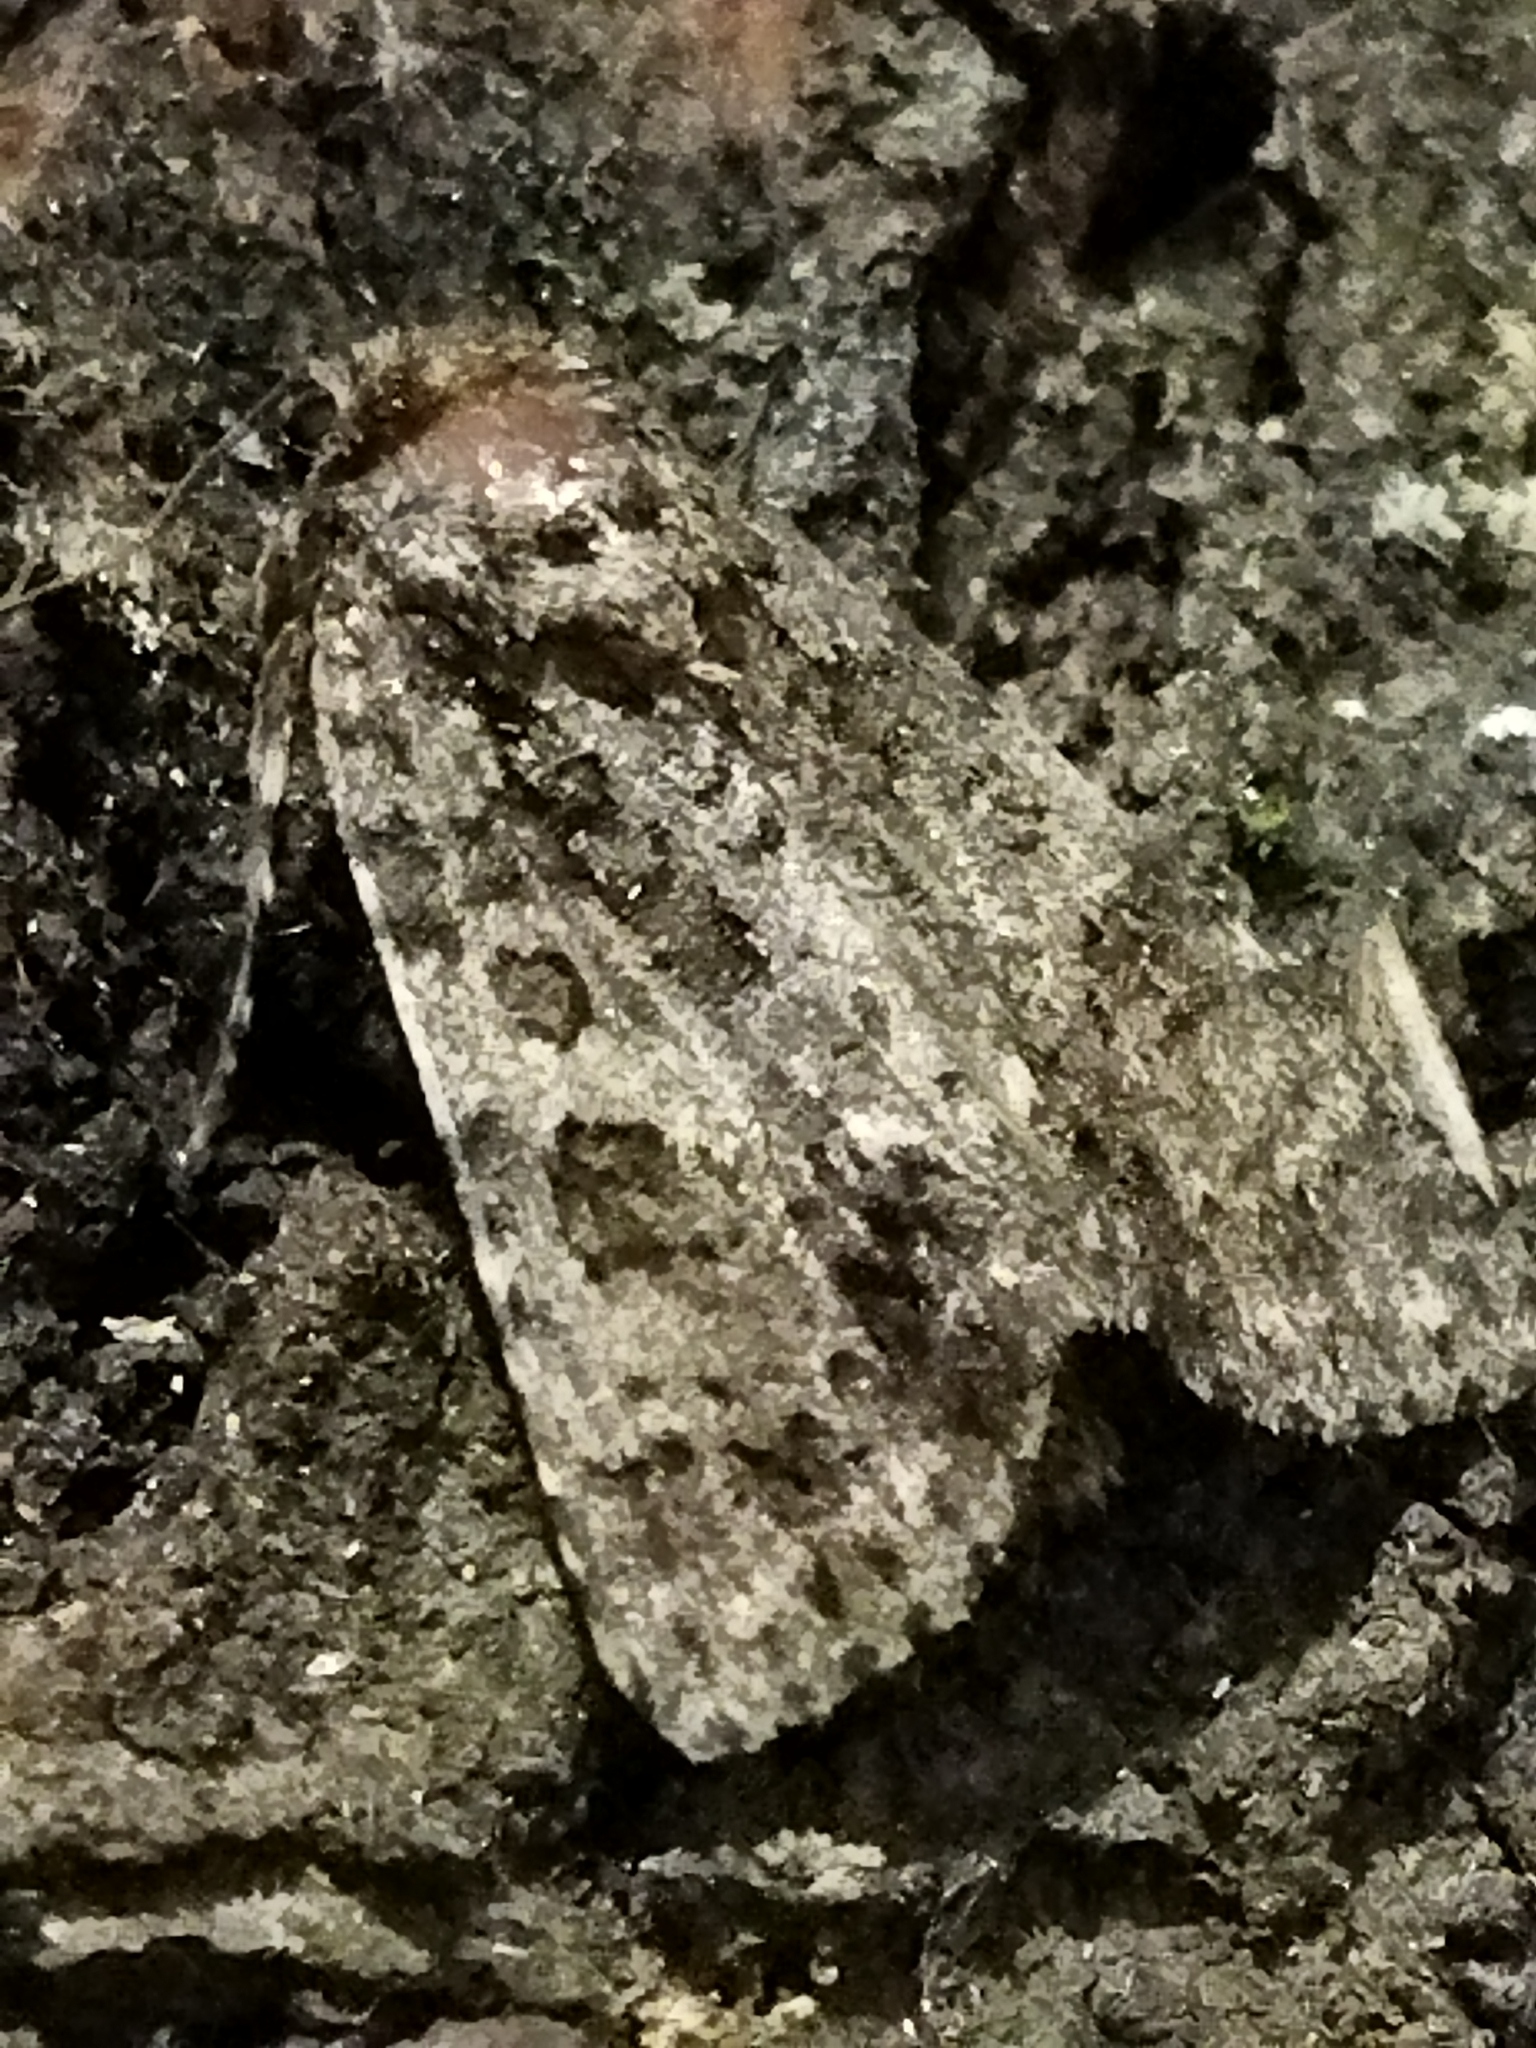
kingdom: Animalia
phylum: Arthropoda
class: Insecta
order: Lepidoptera
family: Noctuidae
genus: Acronicta
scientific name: Acronicta rumicis
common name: Knot grass
